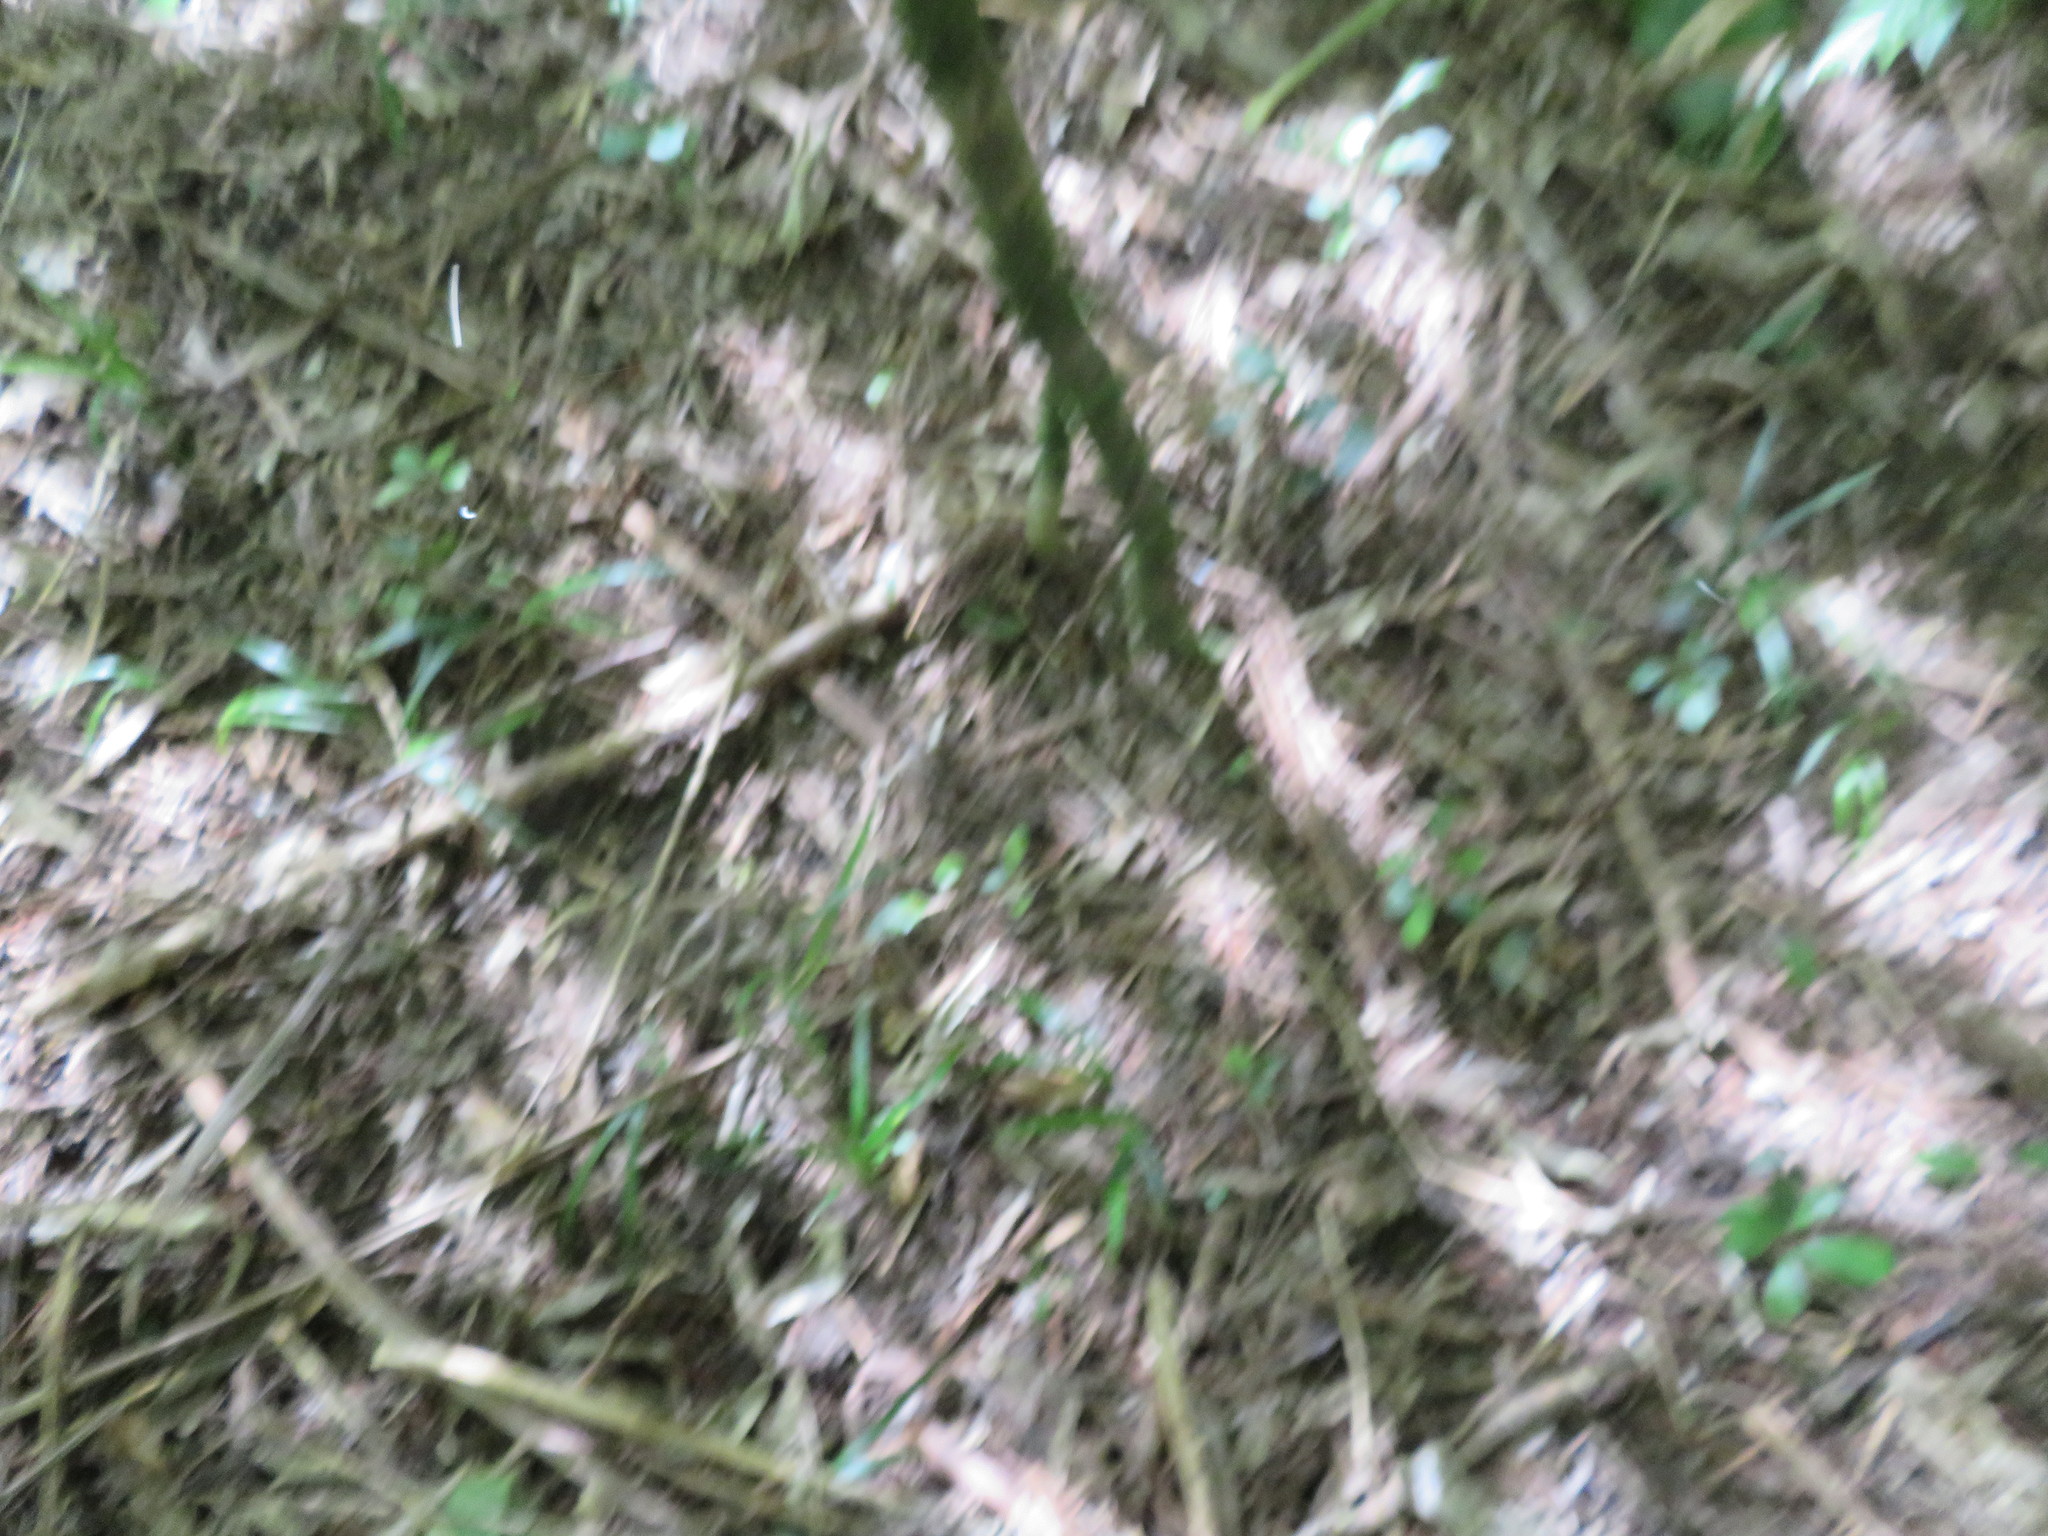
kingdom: Plantae
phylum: Tracheophyta
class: Liliopsida
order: Arecales
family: Arecaceae
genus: Rhopalostylis
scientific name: Rhopalostylis sapida
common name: Feather-duster palm
